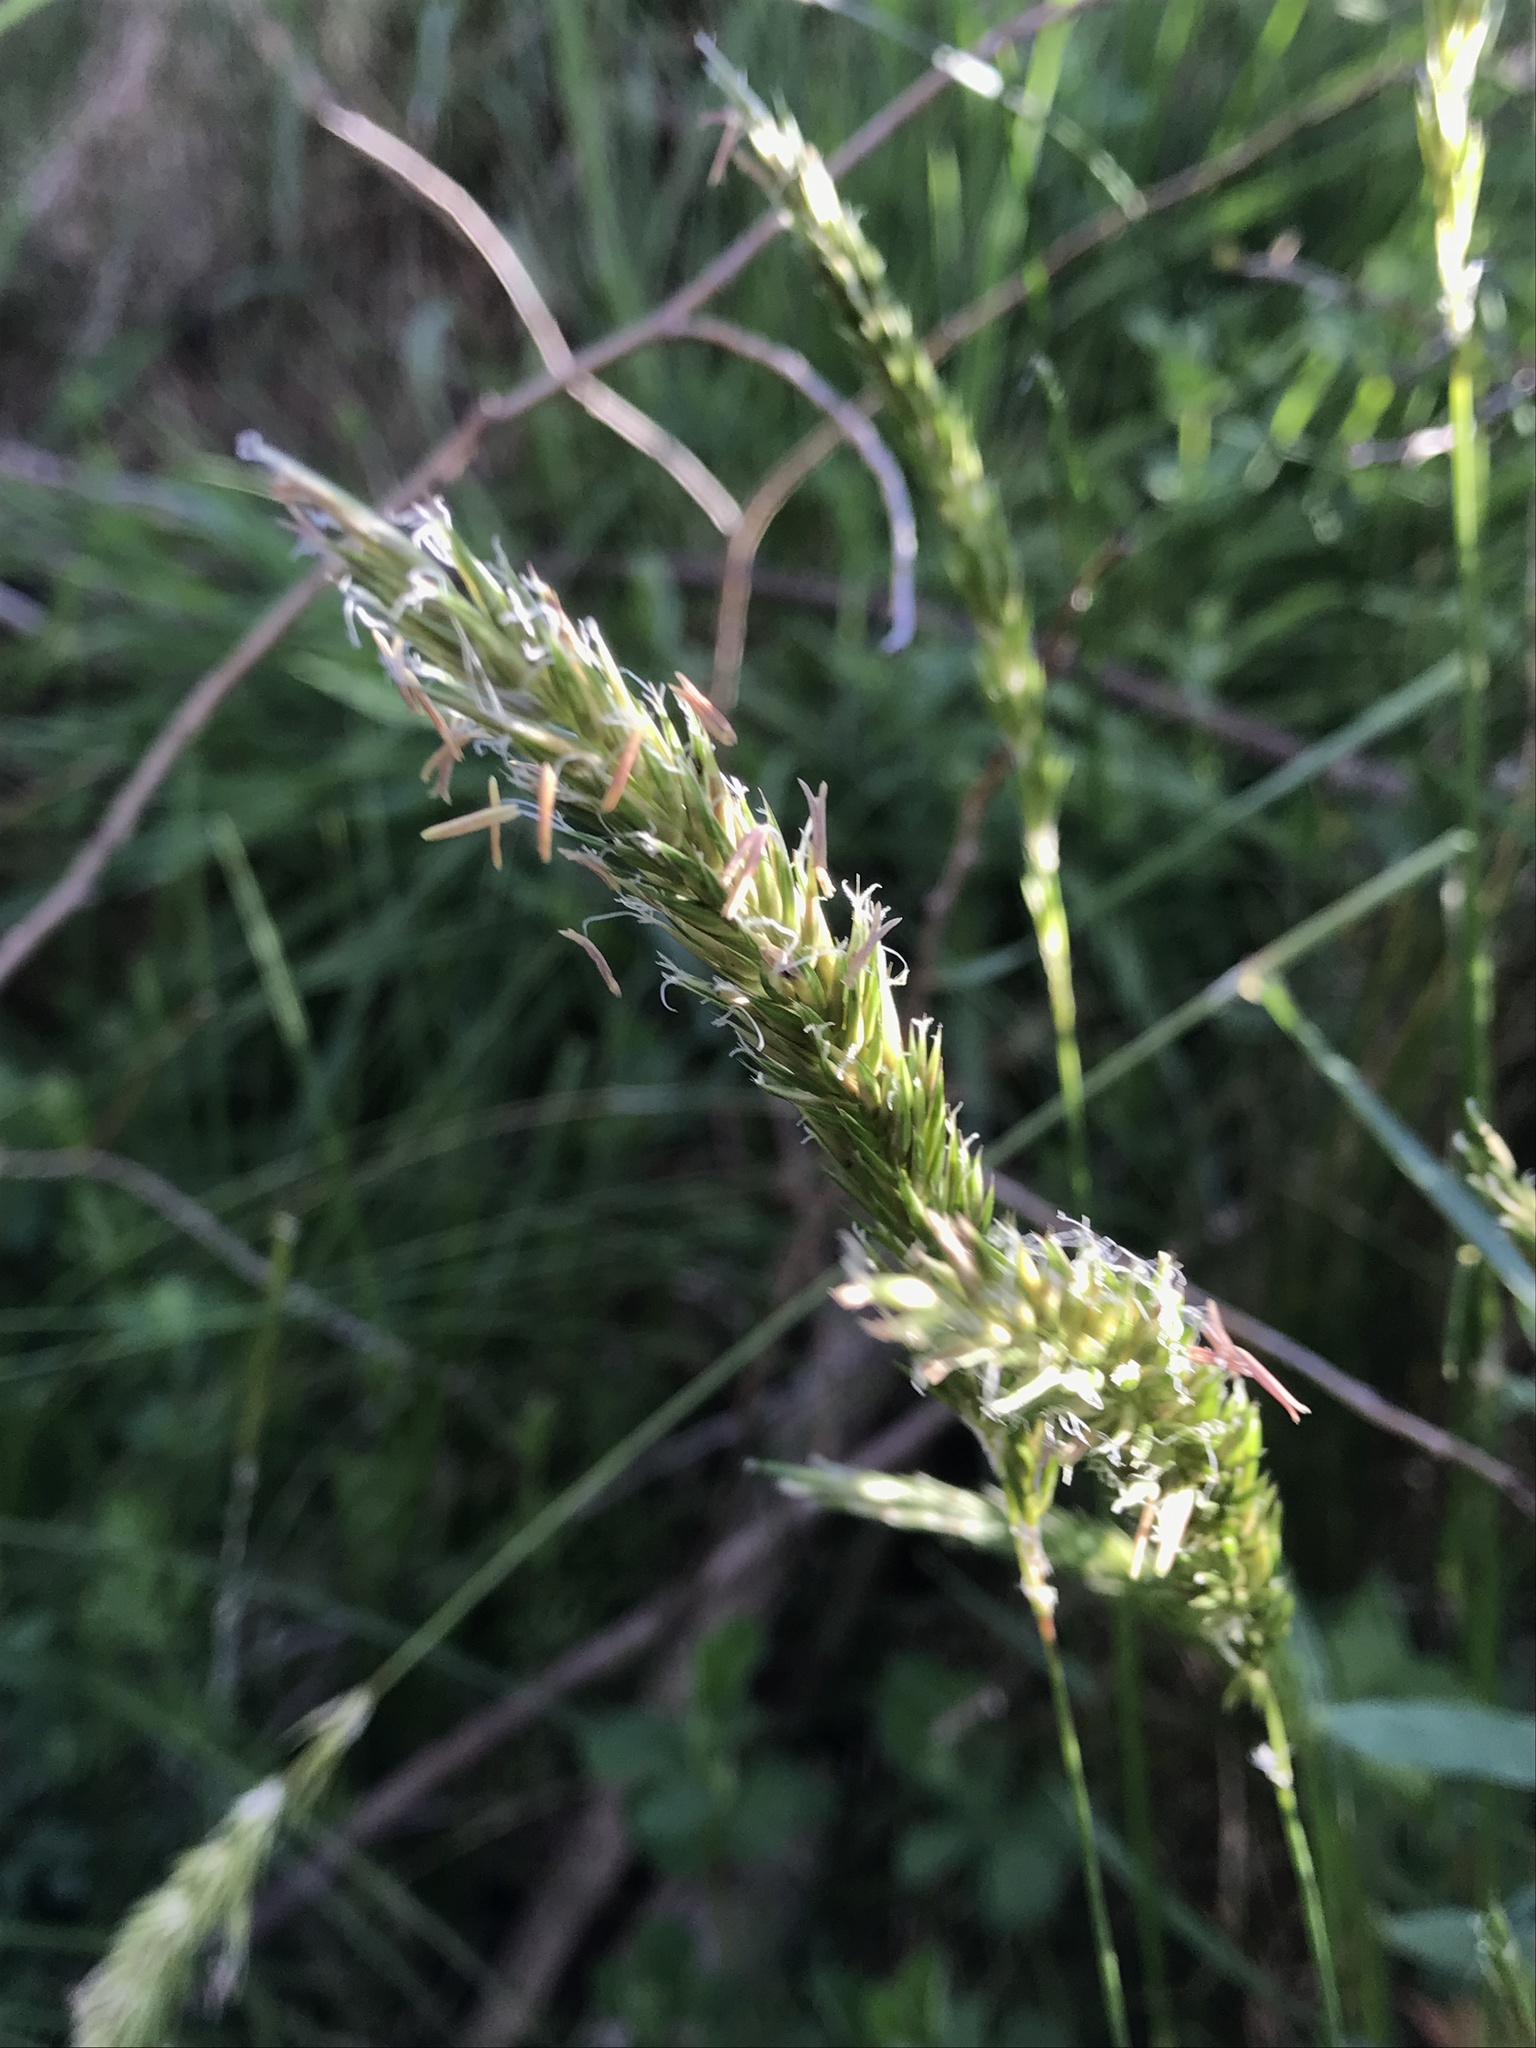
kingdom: Plantae
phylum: Tracheophyta
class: Liliopsida
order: Poales
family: Poaceae
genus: Anthoxanthum
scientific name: Anthoxanthum odoratum
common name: Sweet vernalgrass
